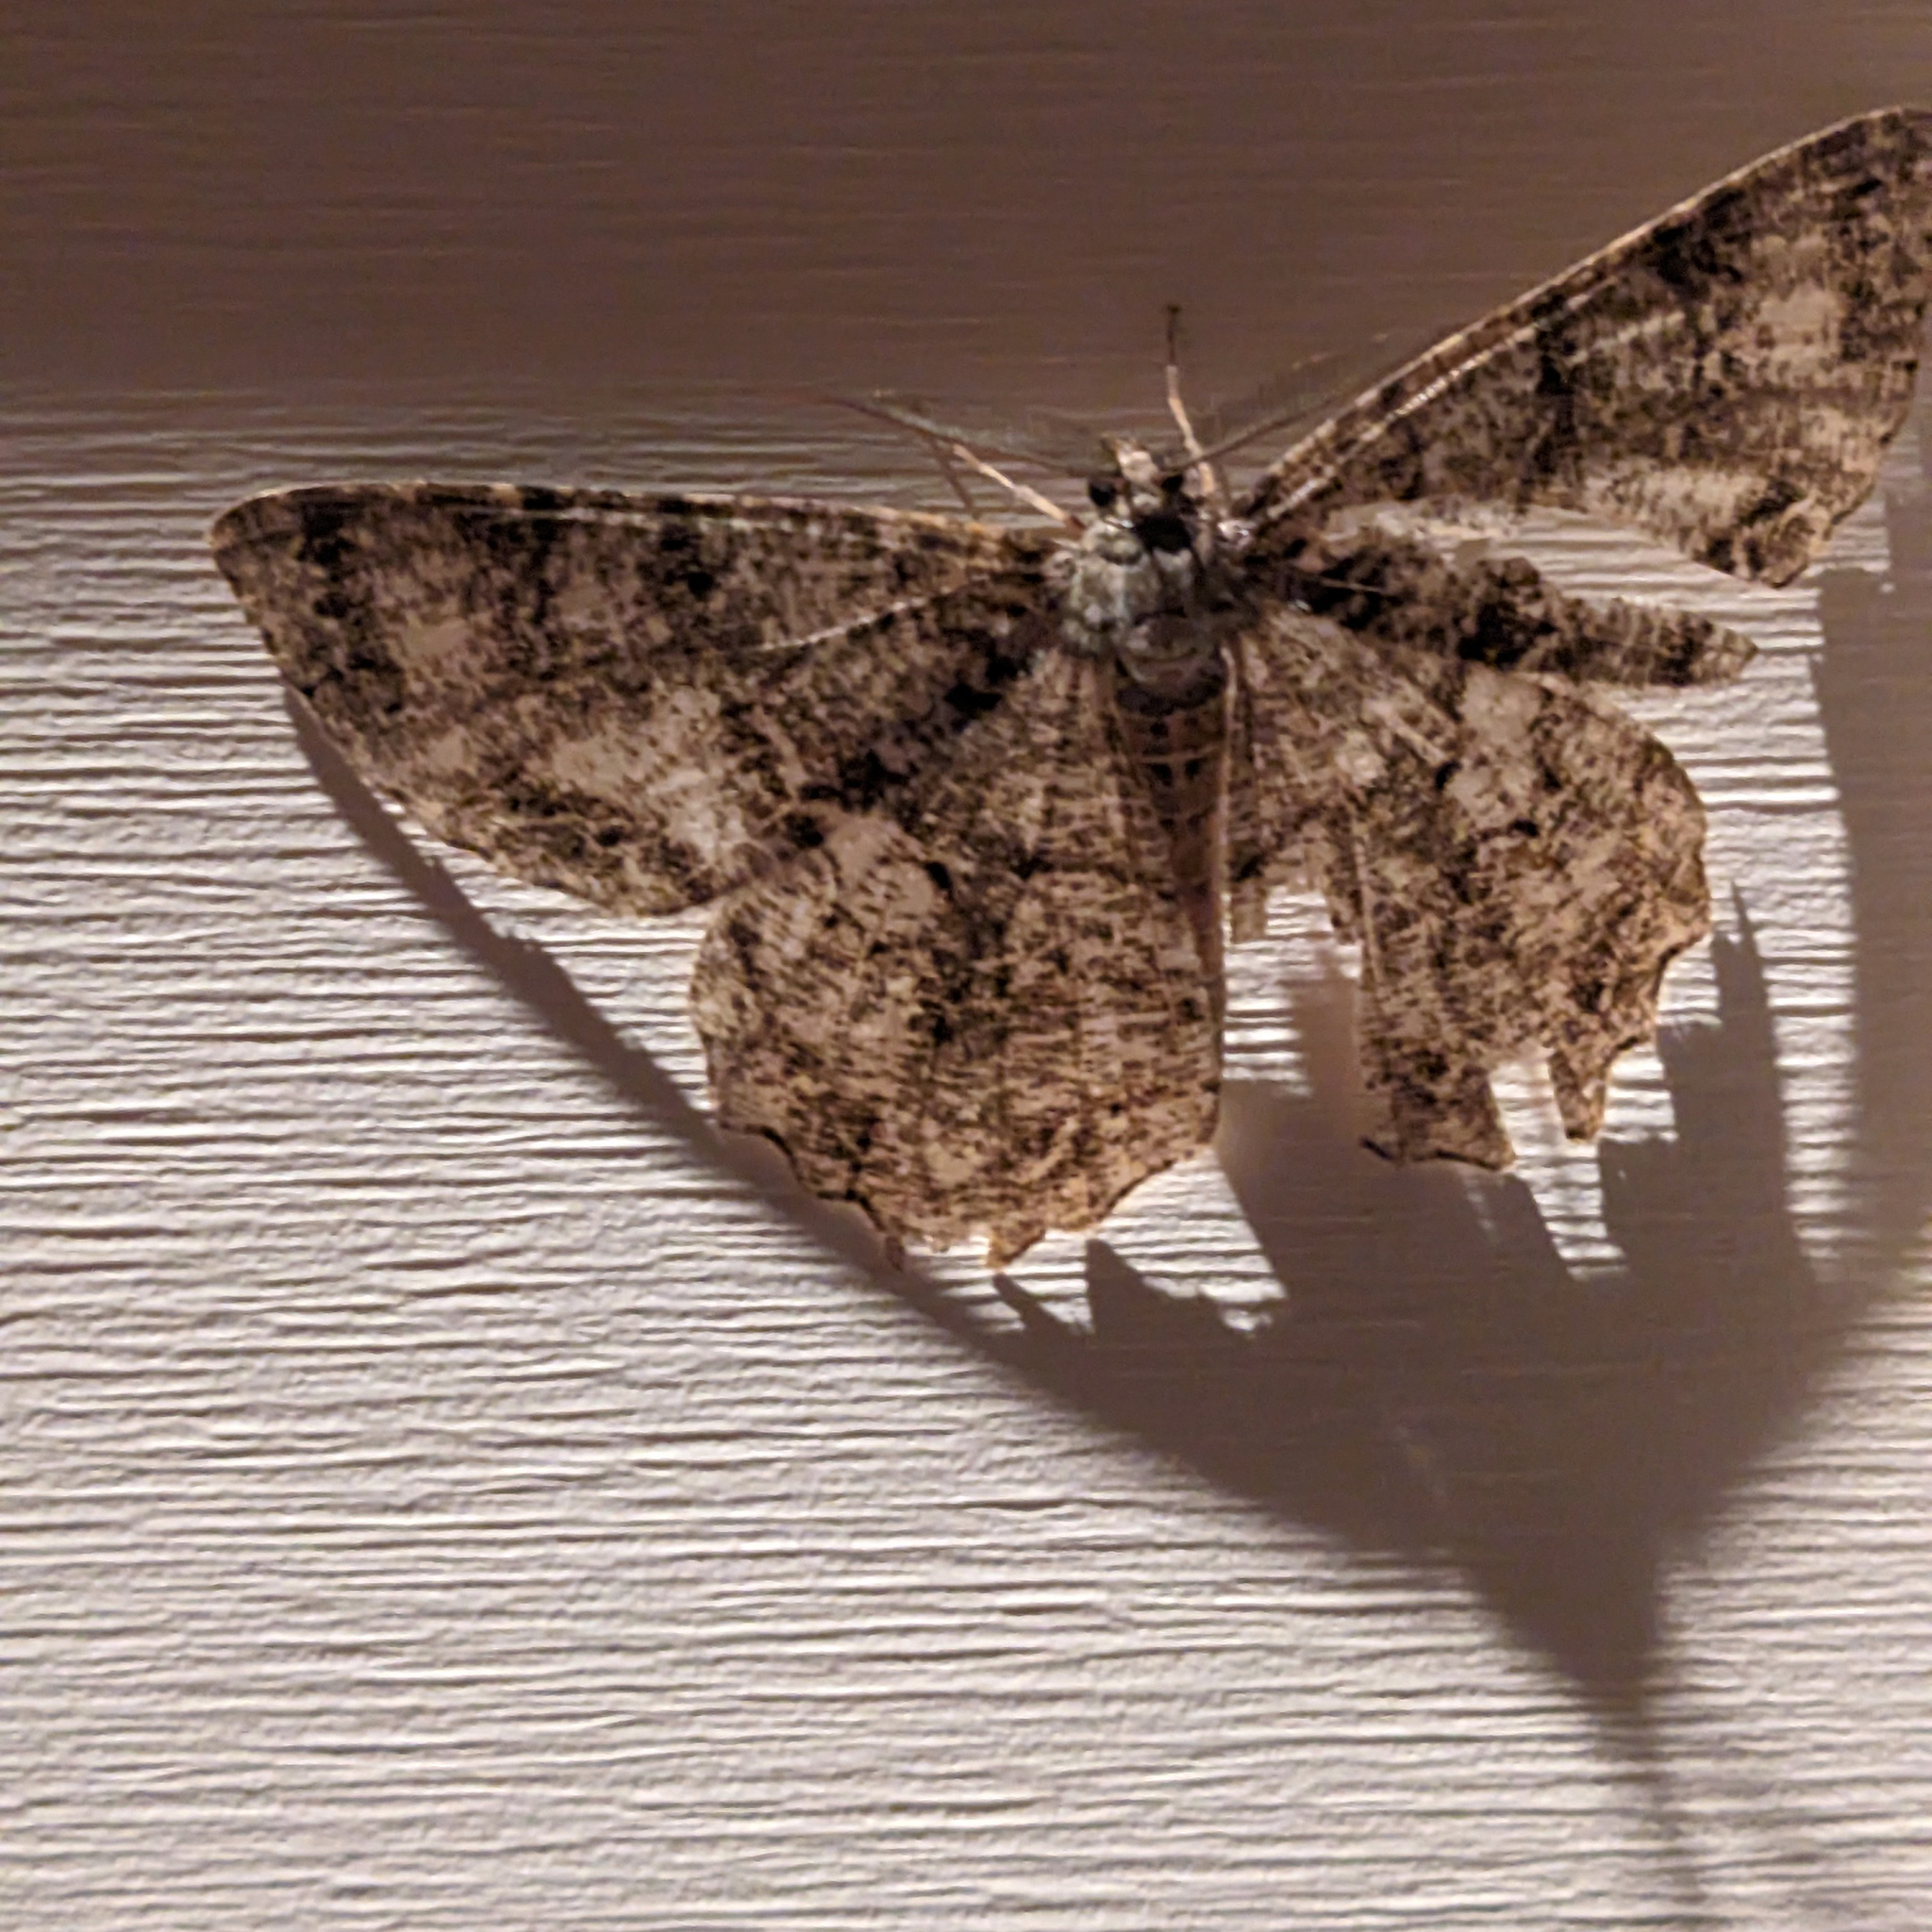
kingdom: Animalia
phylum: Arthropoda
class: Insecta
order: Lepidoptera
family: Geometridae
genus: Epimecis
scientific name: Epimecis hortaria
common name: Tulip-tree beauty
